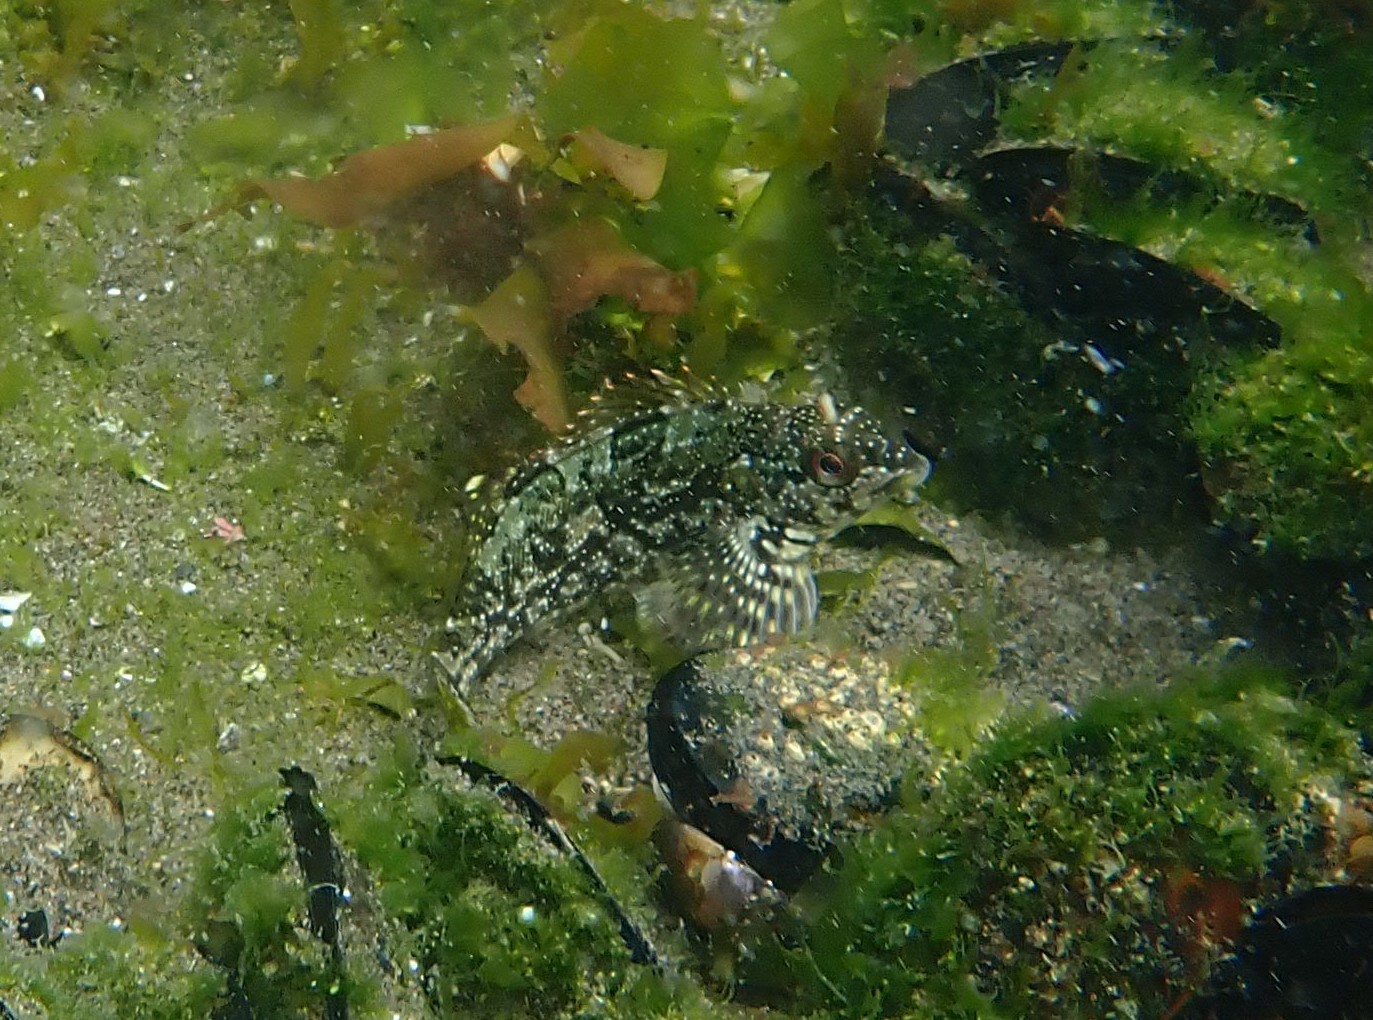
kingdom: Animalia
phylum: Chordata
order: Perciformes
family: Chironemidae
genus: Chironemus
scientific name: Chironemus marmoratus
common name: Kelpfish
